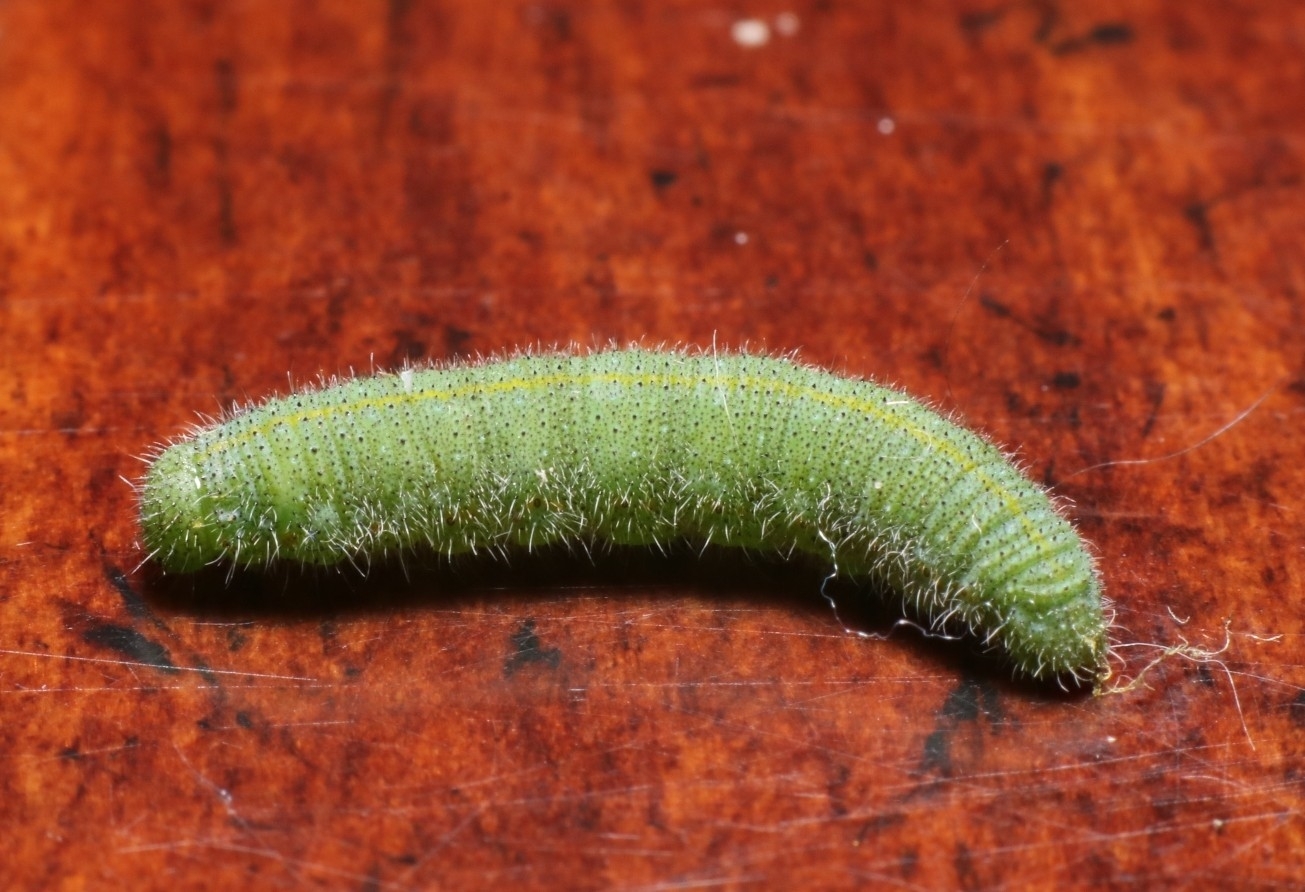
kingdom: Animalia
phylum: Arthropoda
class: Insecta
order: Lepidoptera
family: Pieridae
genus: Pieris
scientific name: Pieris rapae
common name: Small white
